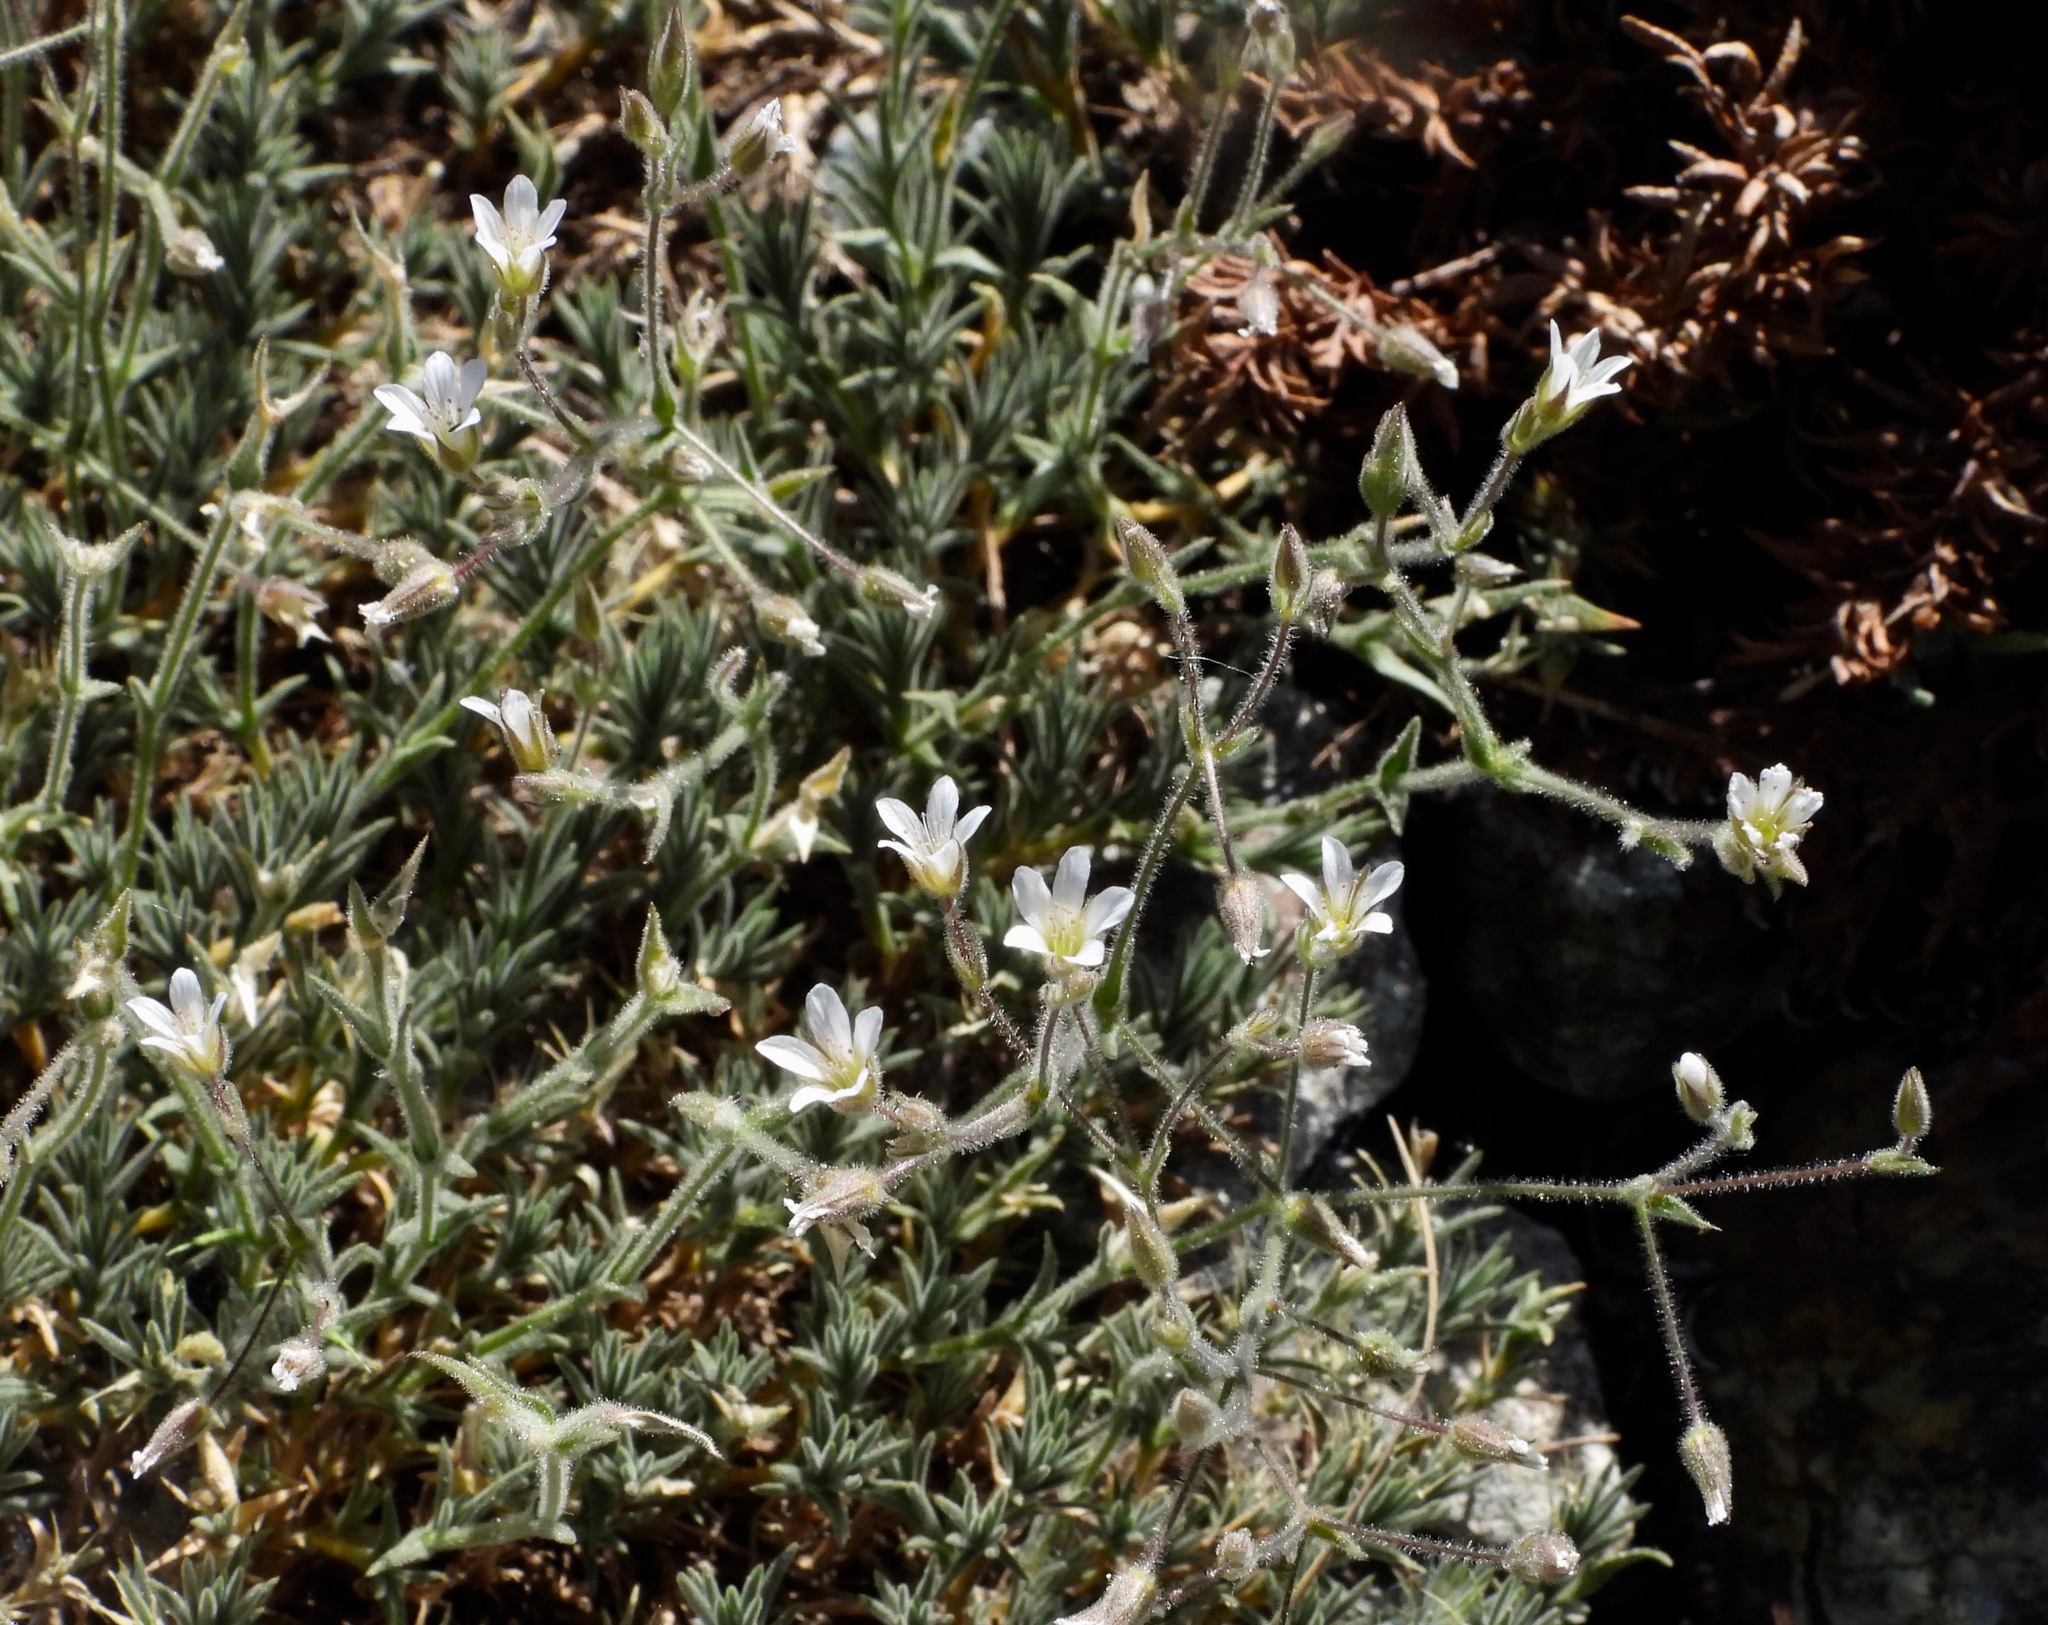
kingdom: Plantae
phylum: Tracheophyta
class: Magnoliopsida
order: Caryophyllales
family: Caryophyllaceae
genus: Sabulina
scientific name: Sabulina nuttallii
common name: Nuttall's stitchwort
